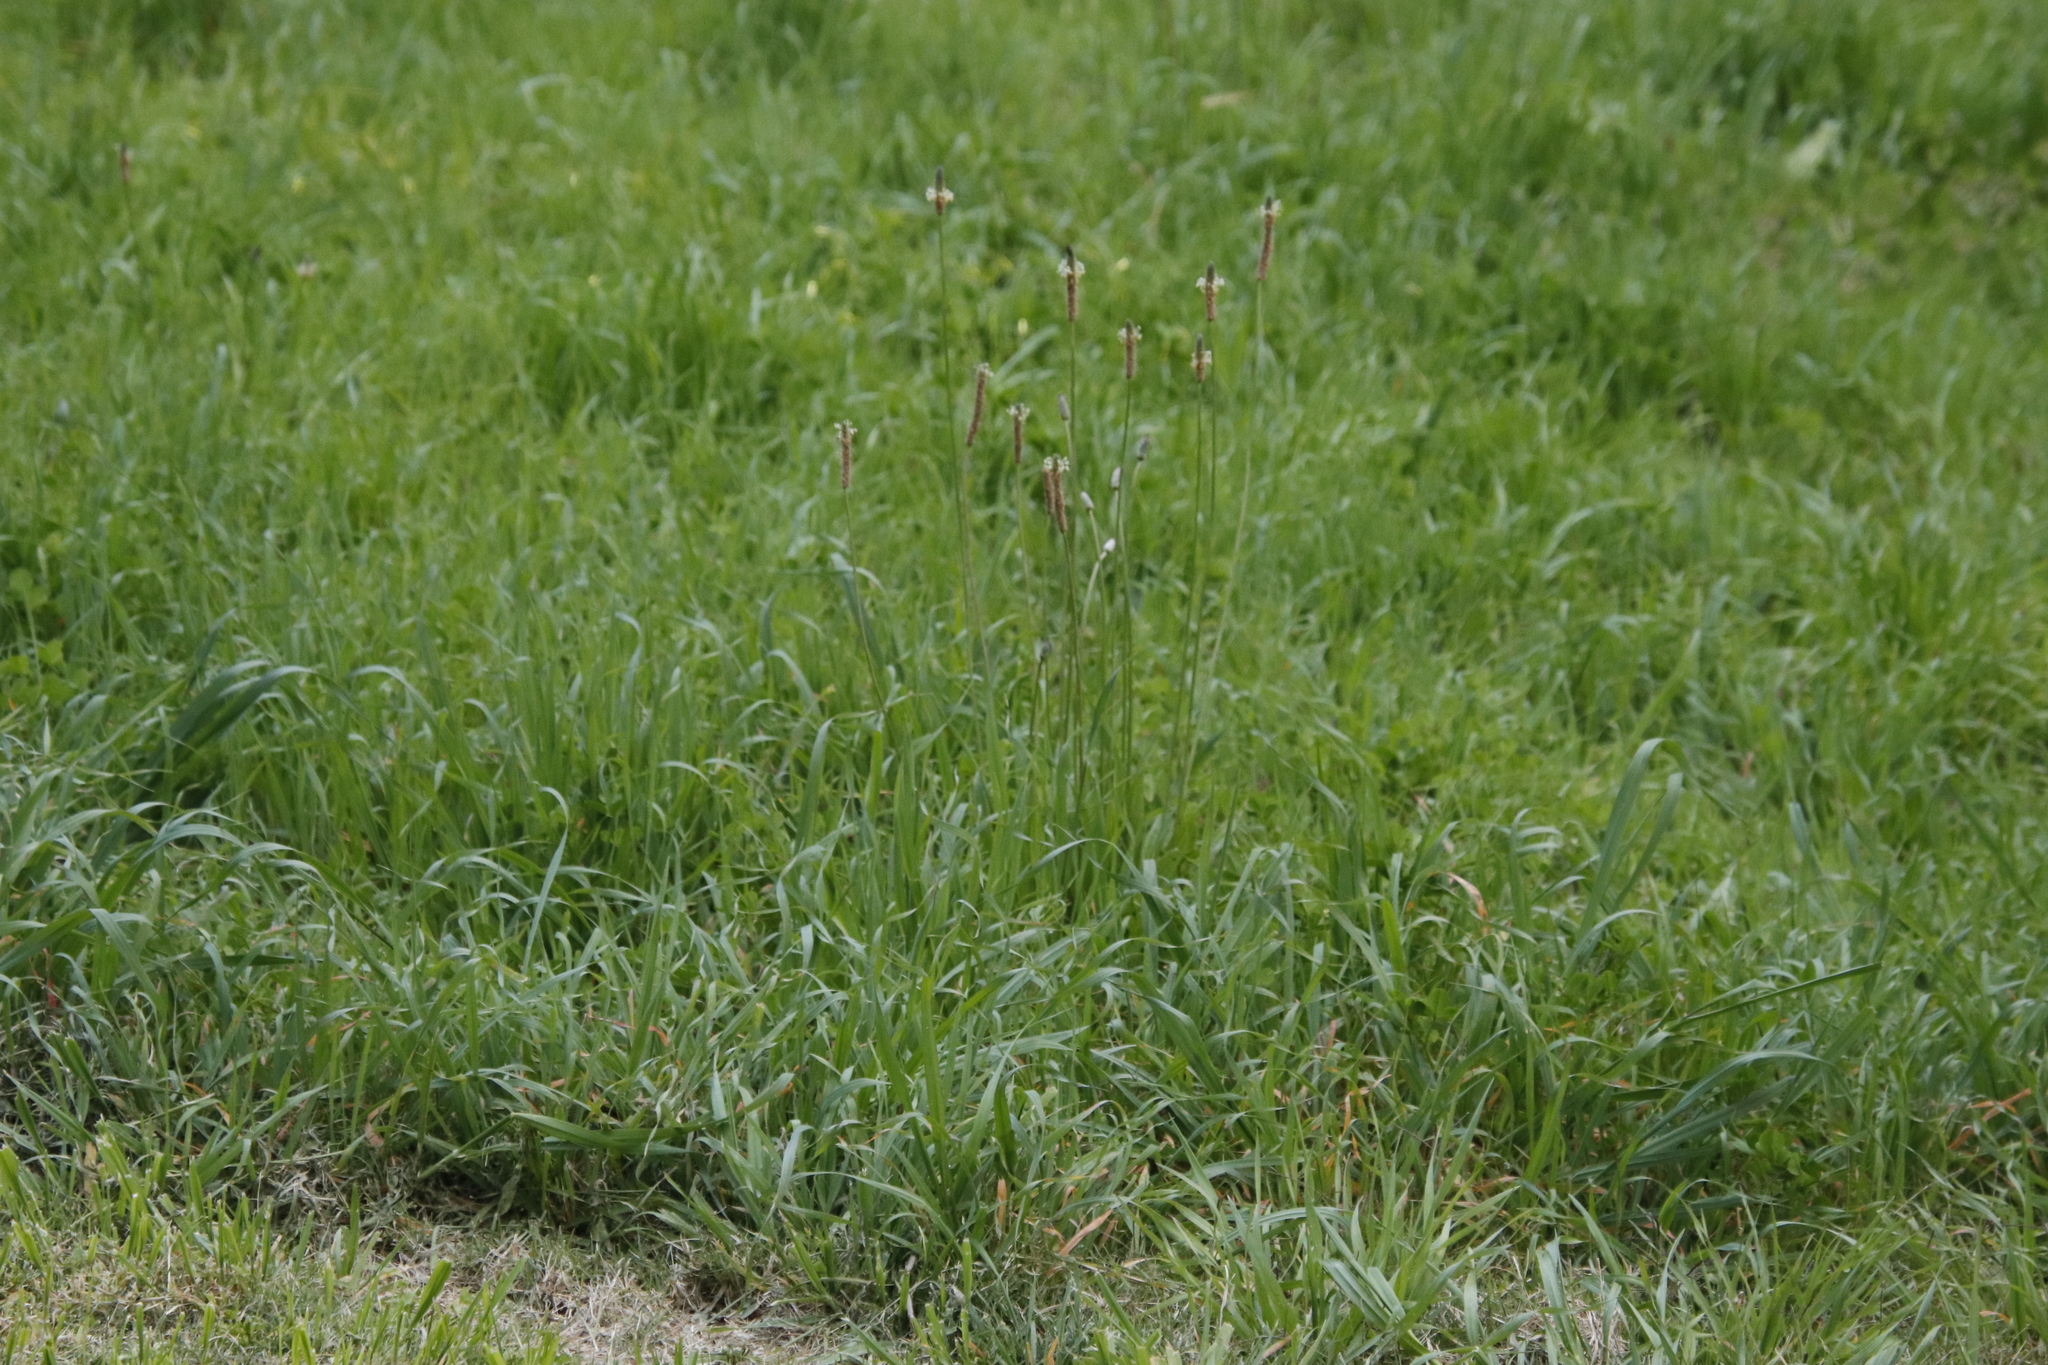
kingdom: Plantae
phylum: Tracheophyta
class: Magnoliopsida
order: Lamiales
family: Plantaginaceae
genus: Plantago
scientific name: Plantago lanceolata
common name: Ribwort plantain
